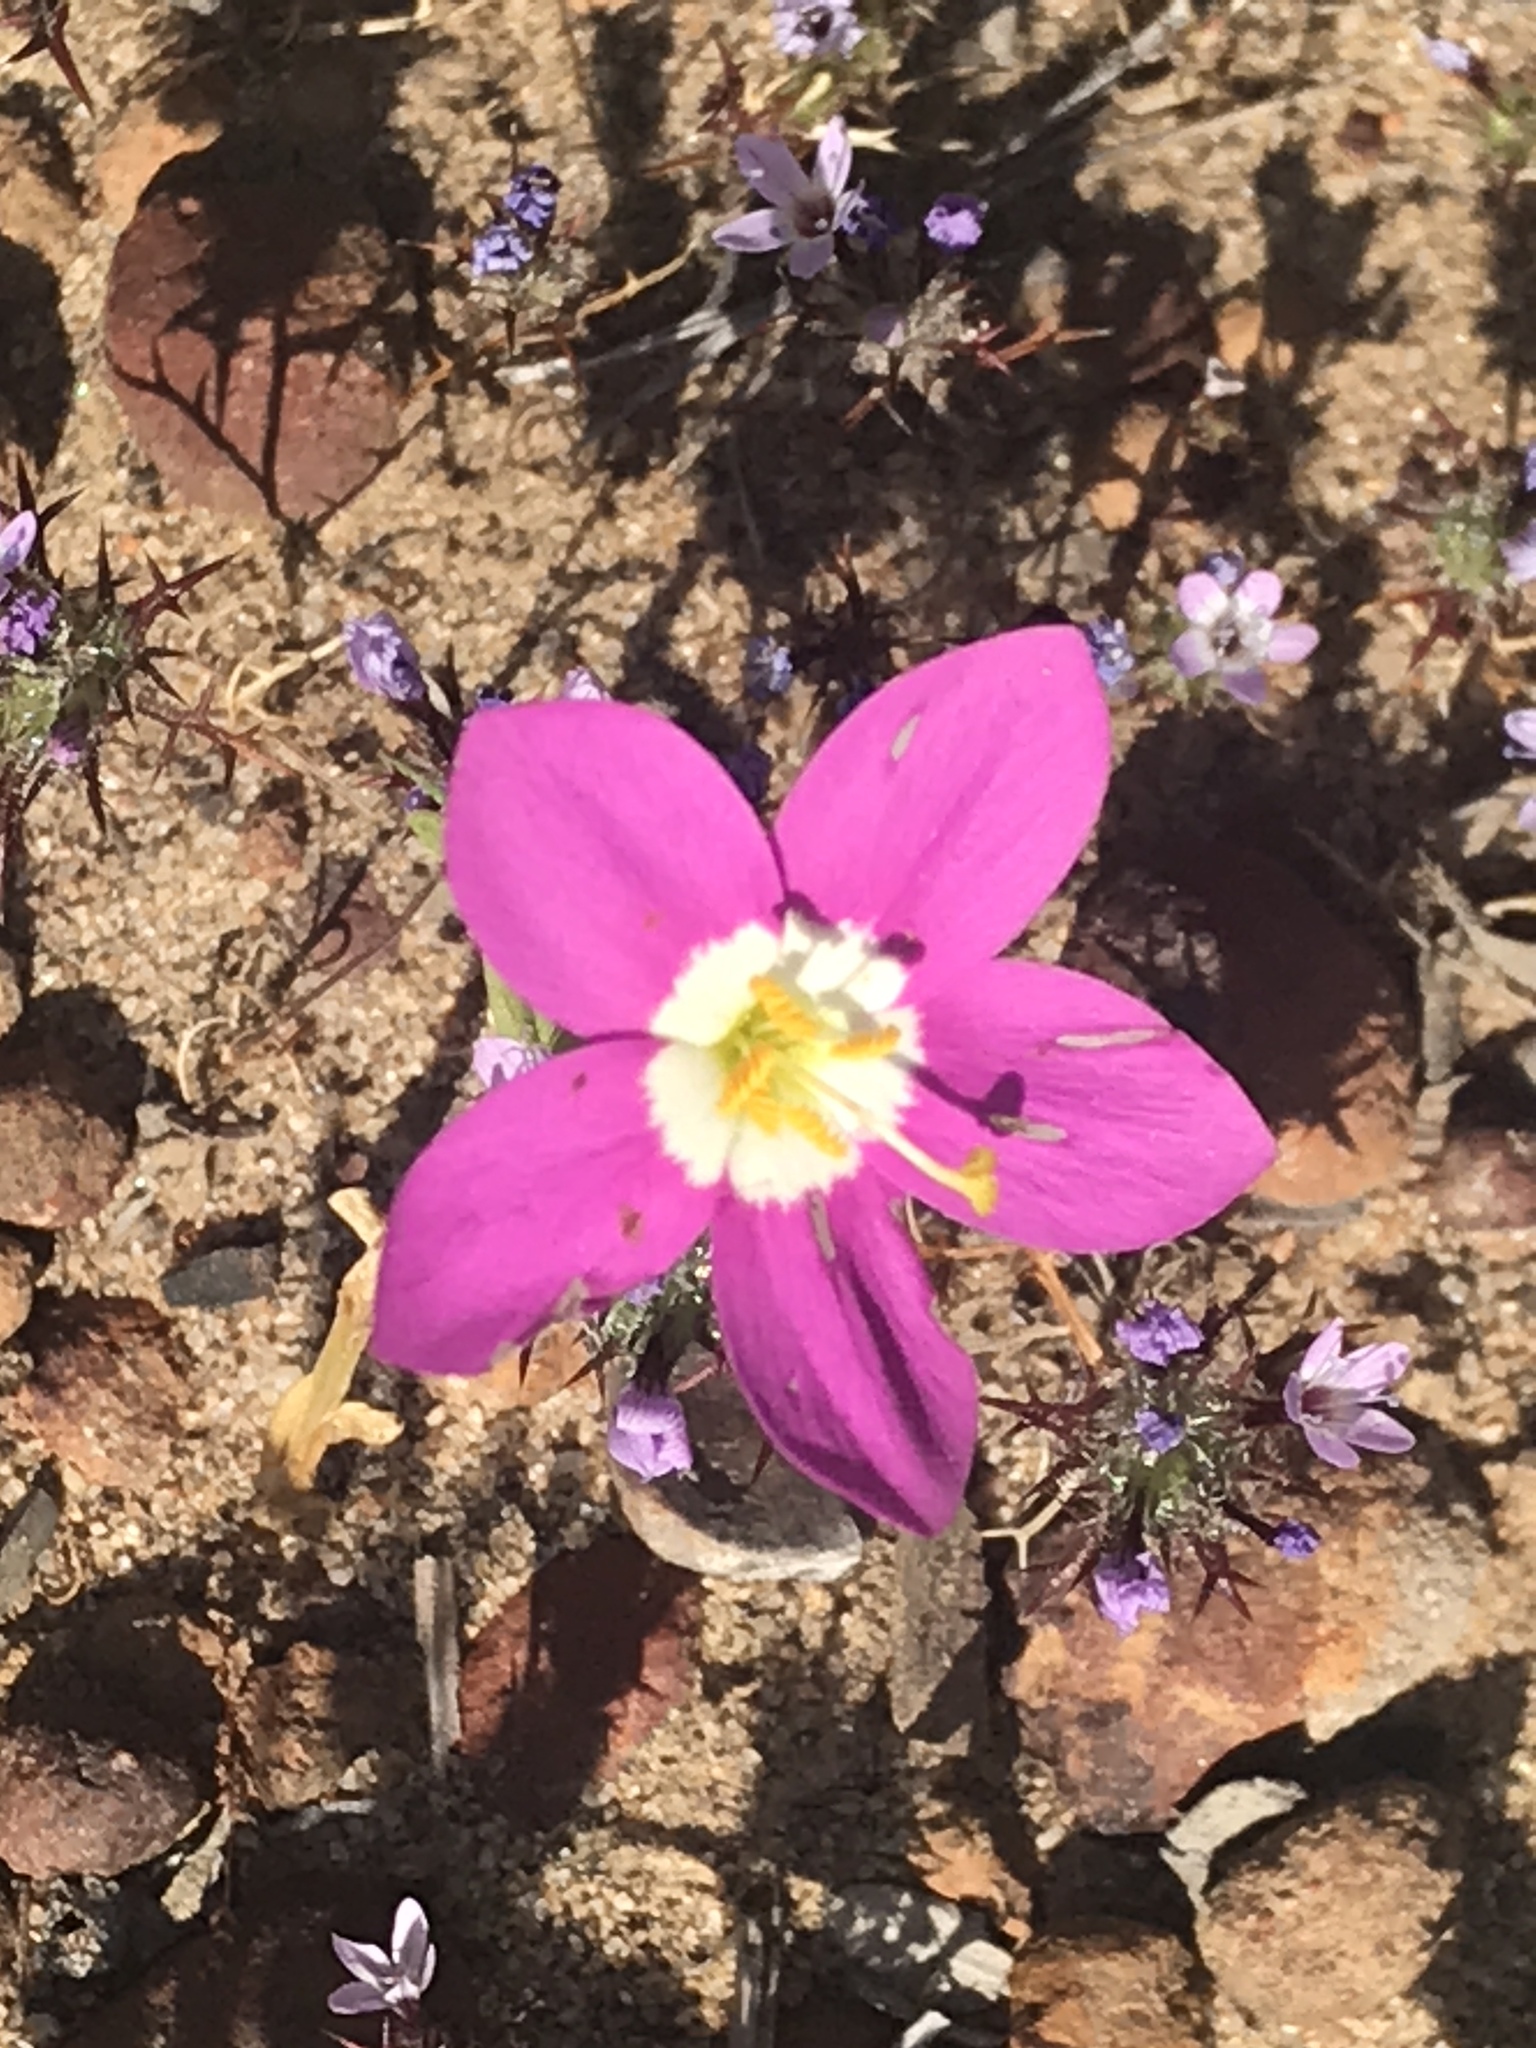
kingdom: Plantae
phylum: Tracheophyta
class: Magnoliopsida
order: Gentianales
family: Gentianaceae
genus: Zeltnera
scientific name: Zeltnera venusta
